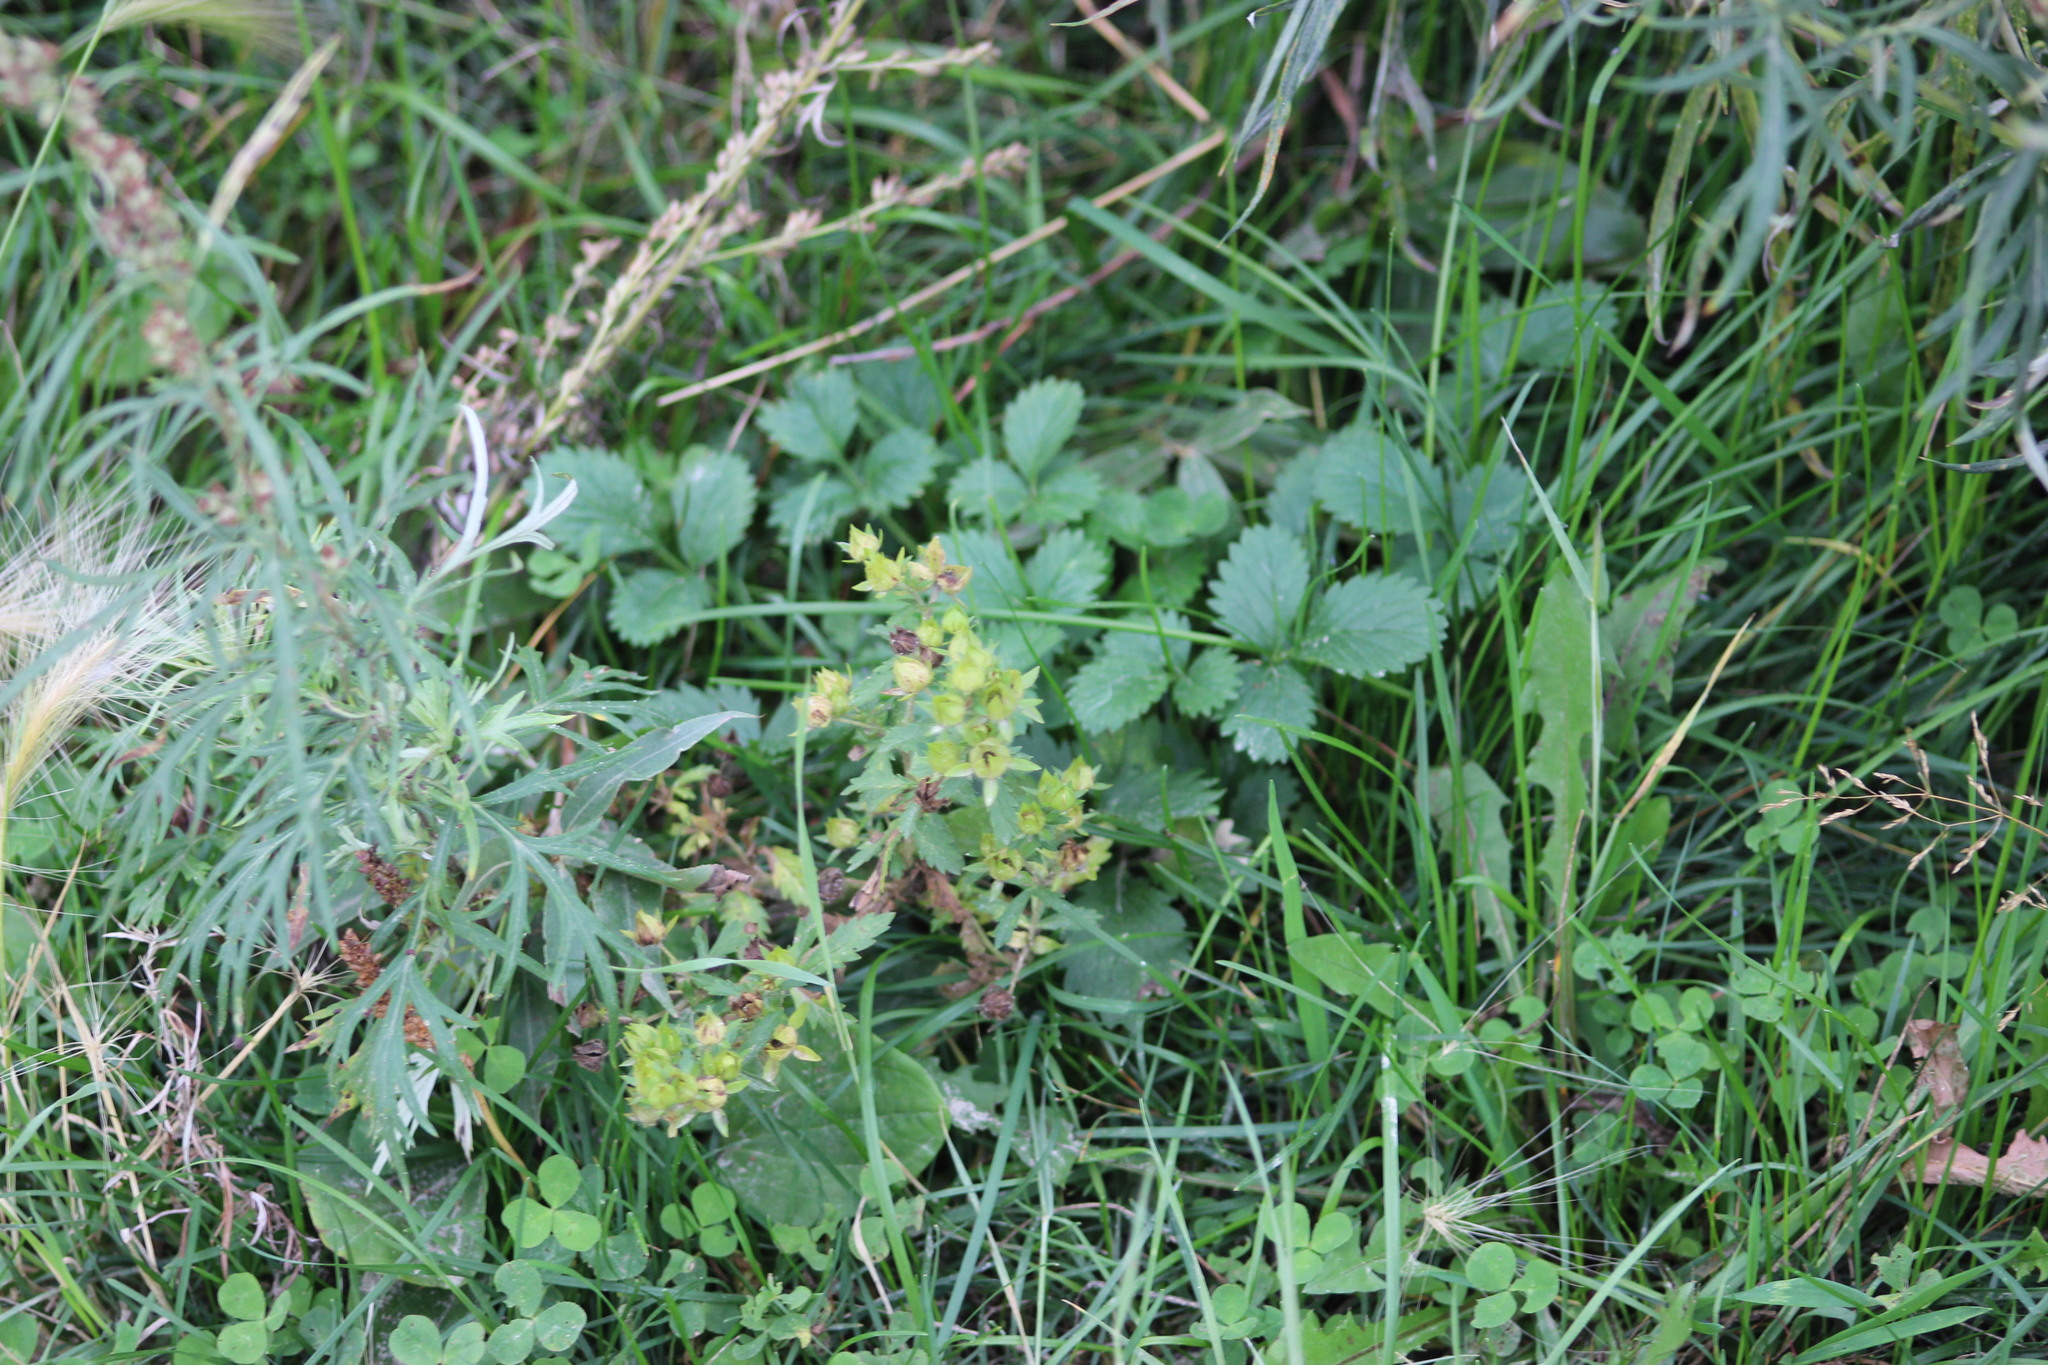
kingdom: Plantae
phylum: Tracheophyta
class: Magnoliopsida
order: Rosales
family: Rosaceae
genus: Potentilla
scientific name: Potentilla norvegica
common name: Ternate-leaved cinquefoil
